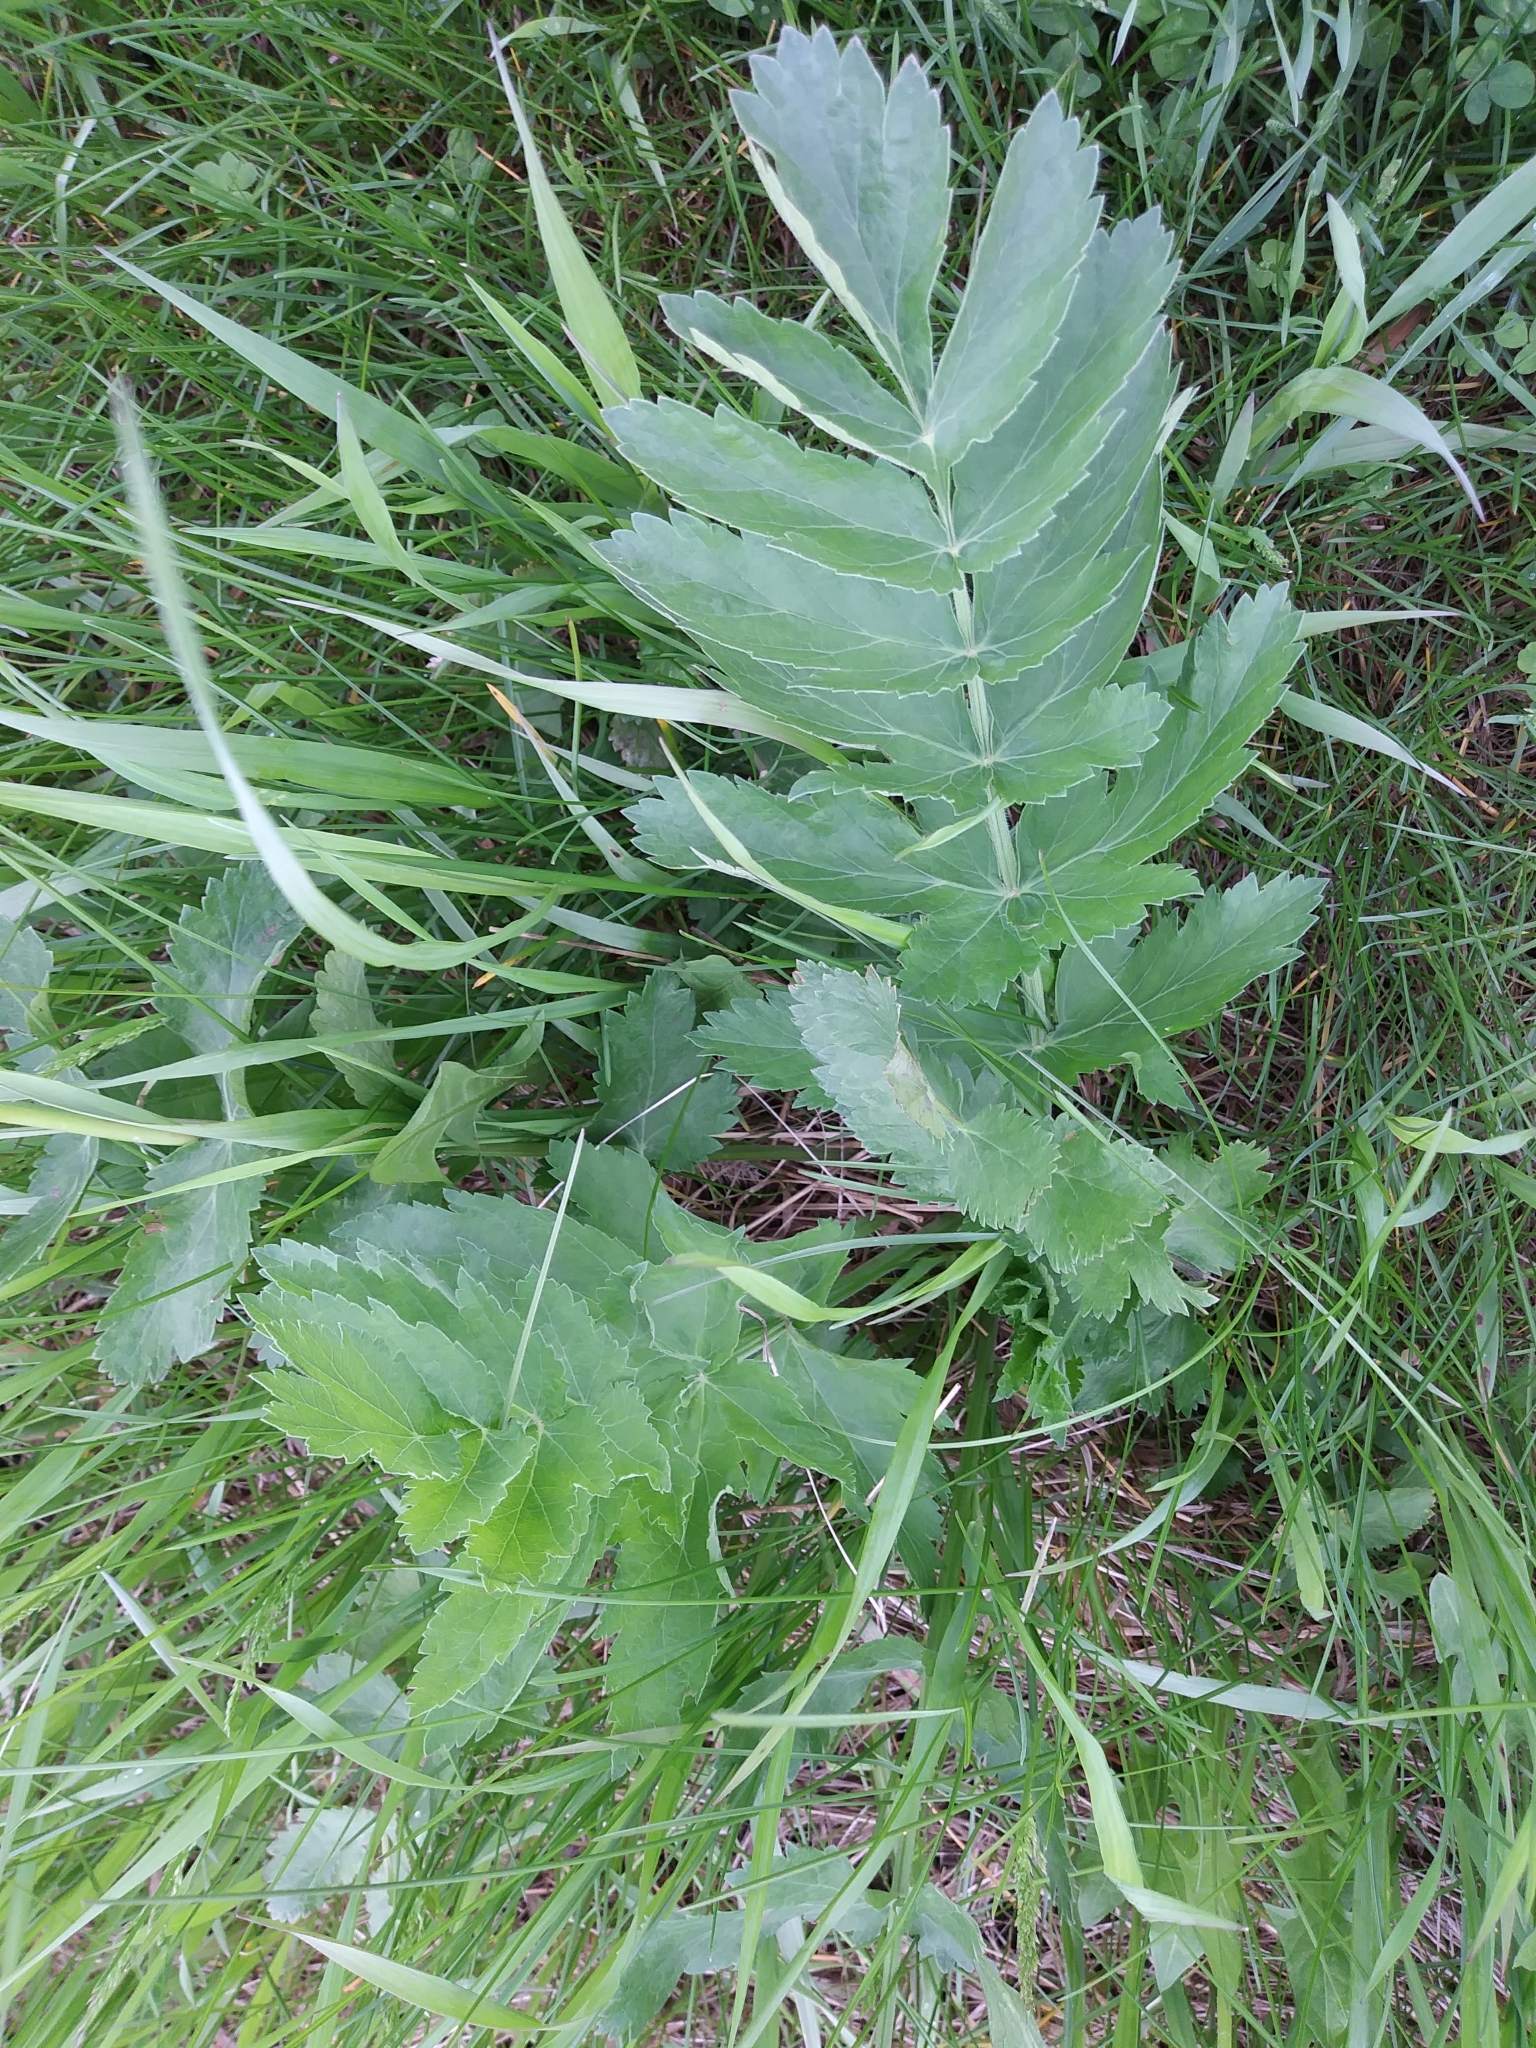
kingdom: Plantae
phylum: Tracheophyta
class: Magnoliopsida
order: Apiales
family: Apiaceae
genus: Pastinaca
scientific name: Pastinaca sativa
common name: Wild parsnip
